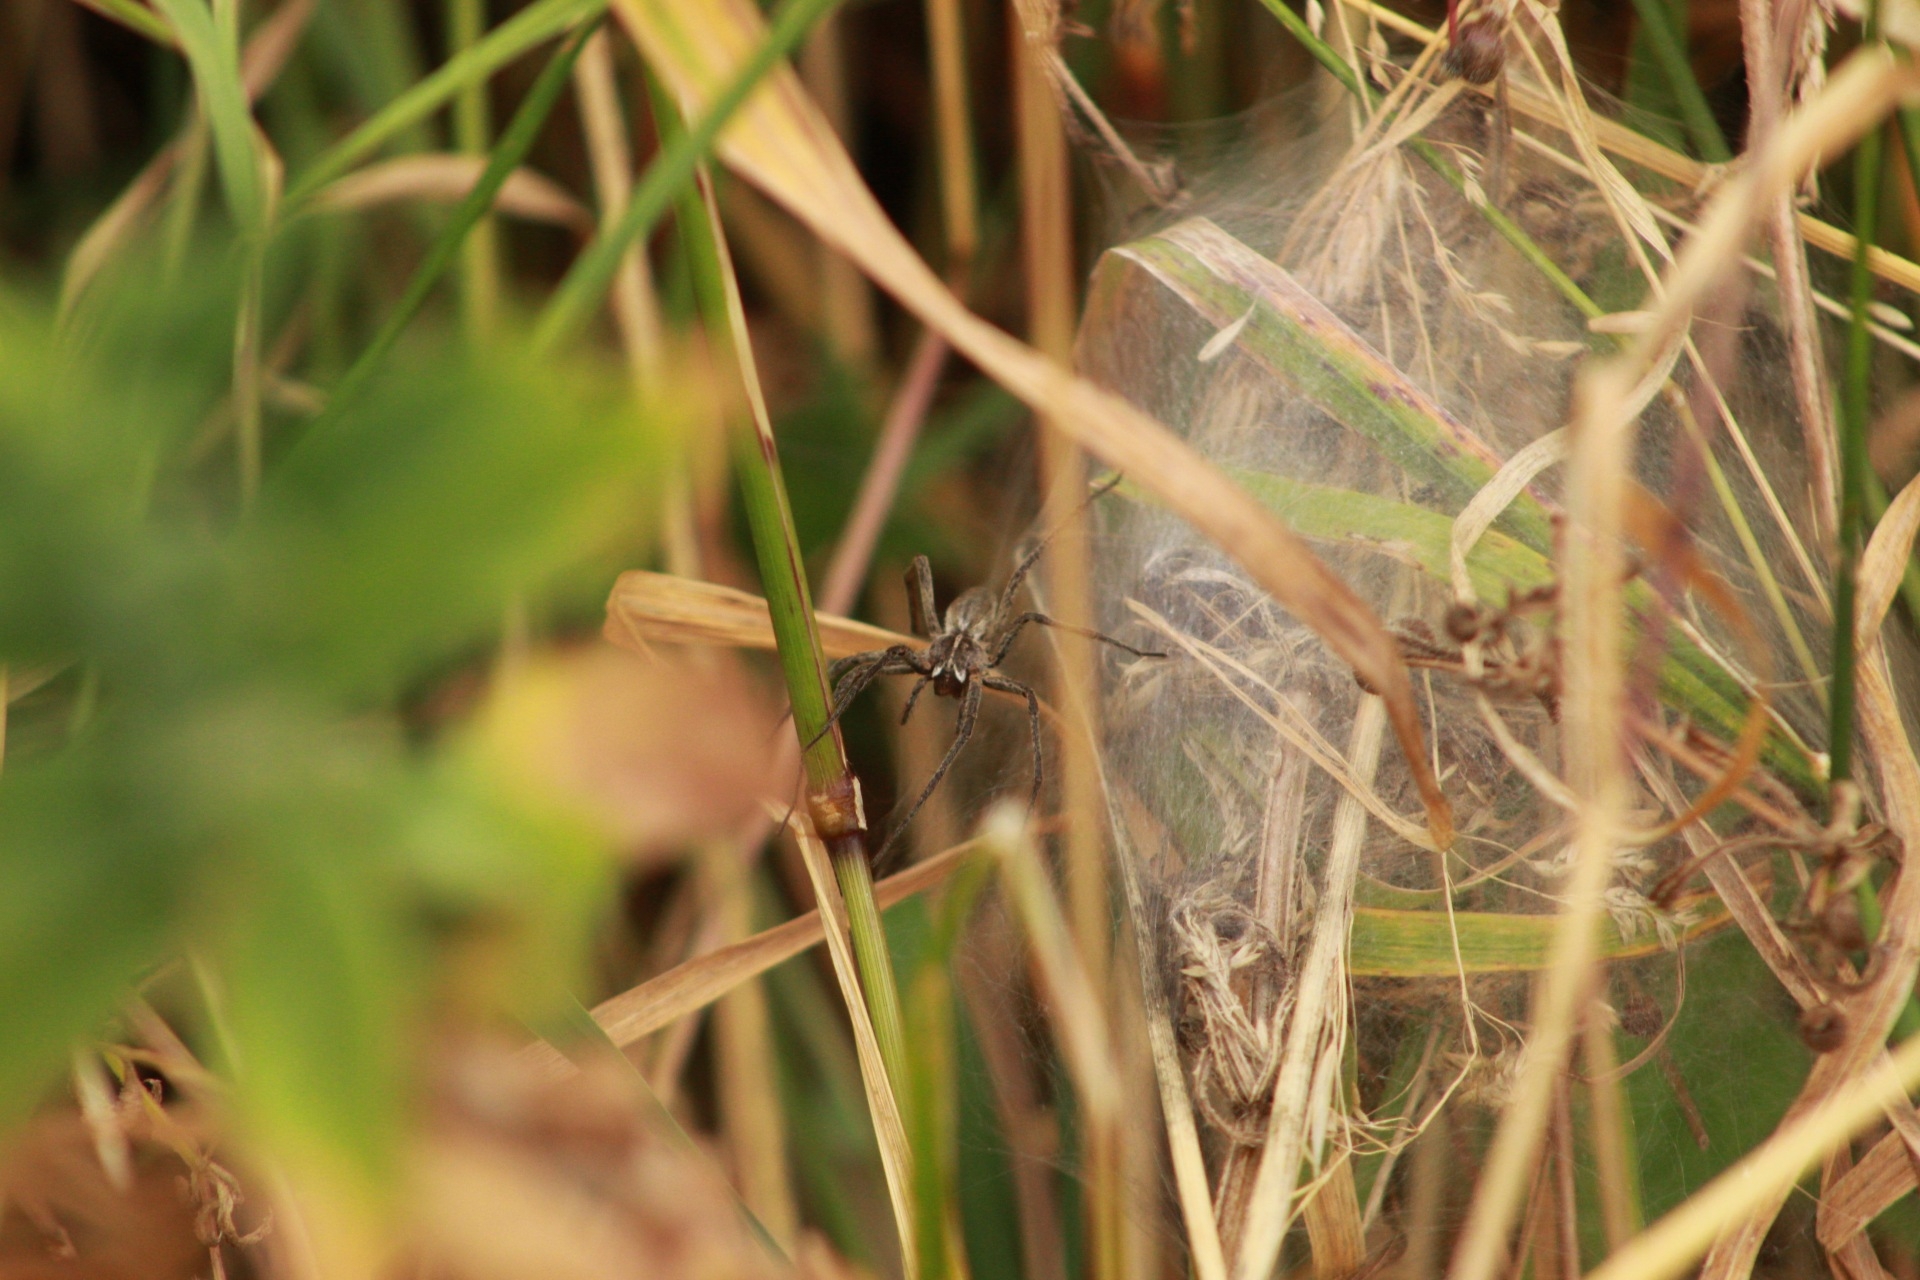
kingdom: Animalia
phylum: Arthropoda
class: Arachnida
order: Araneae
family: Pisauridae
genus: Pisaura
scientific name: Pisaura mirabilis
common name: Tent spider
